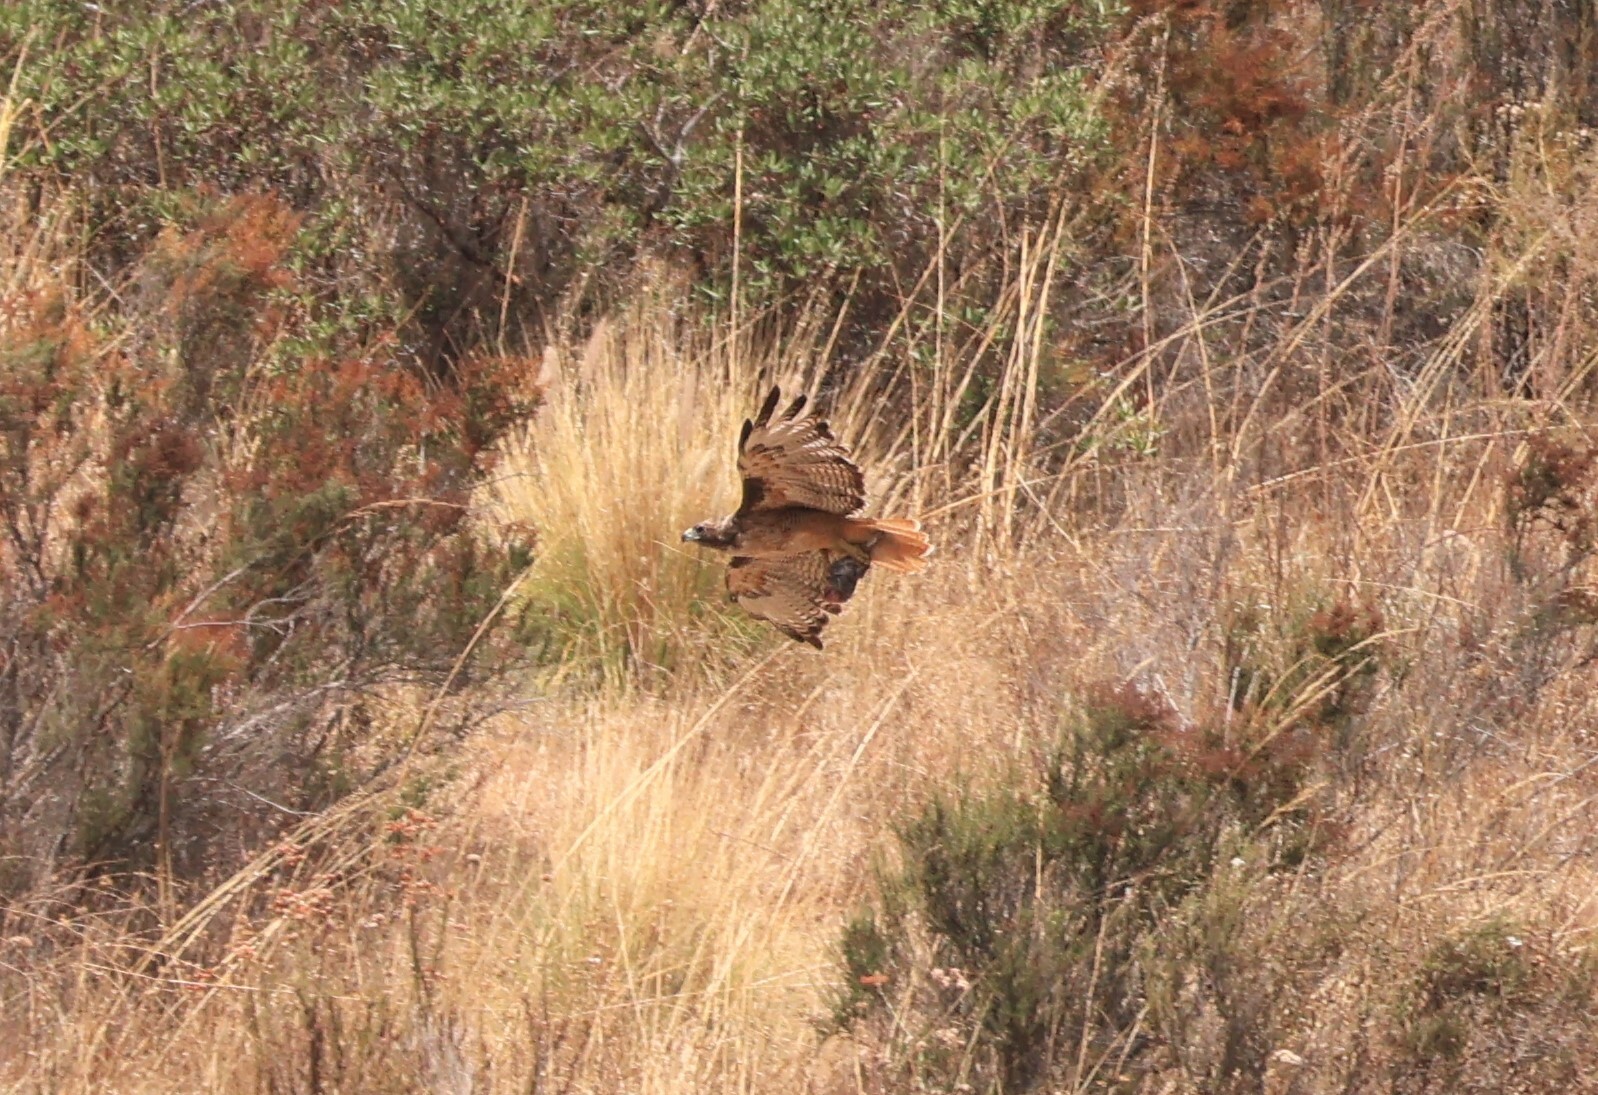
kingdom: Animalia
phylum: Chordata
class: Aves
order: Accipitriformes
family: Accipitridae
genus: Buteo
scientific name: Buteo jamaicensis
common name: Red-tailed hawk
